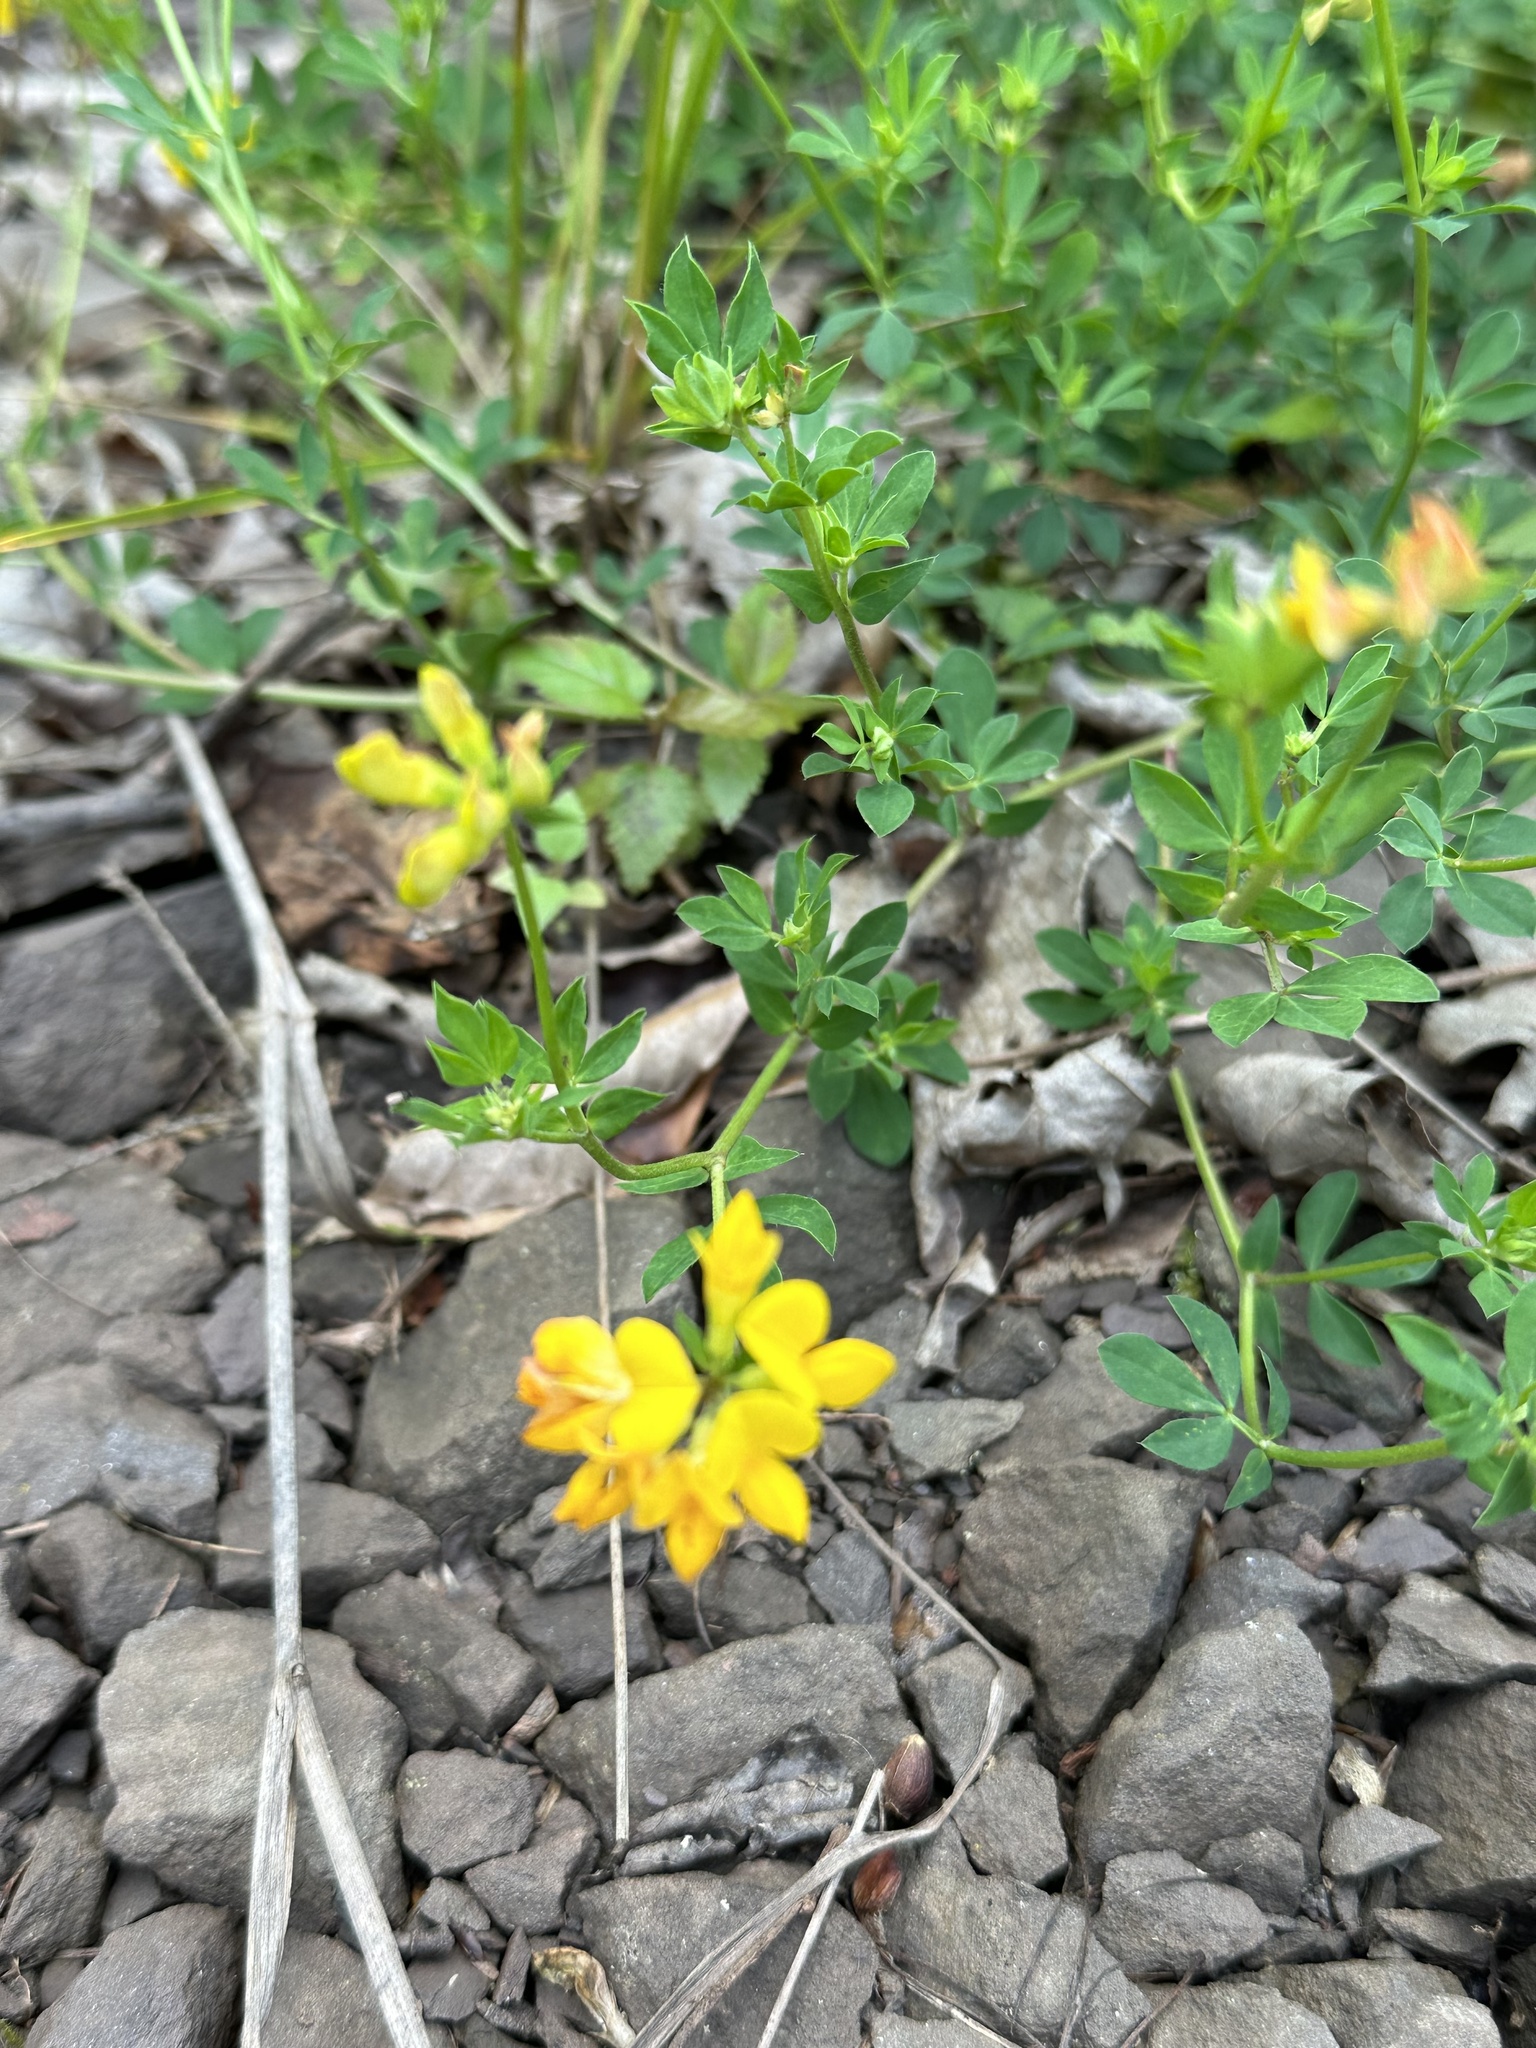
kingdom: Plantae
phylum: Tracheophyta
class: Magnoliopsida
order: Fabales
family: Fabaceae
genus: Lotus
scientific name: Lotus corniculatus
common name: Common bird's-foot-trefoil
